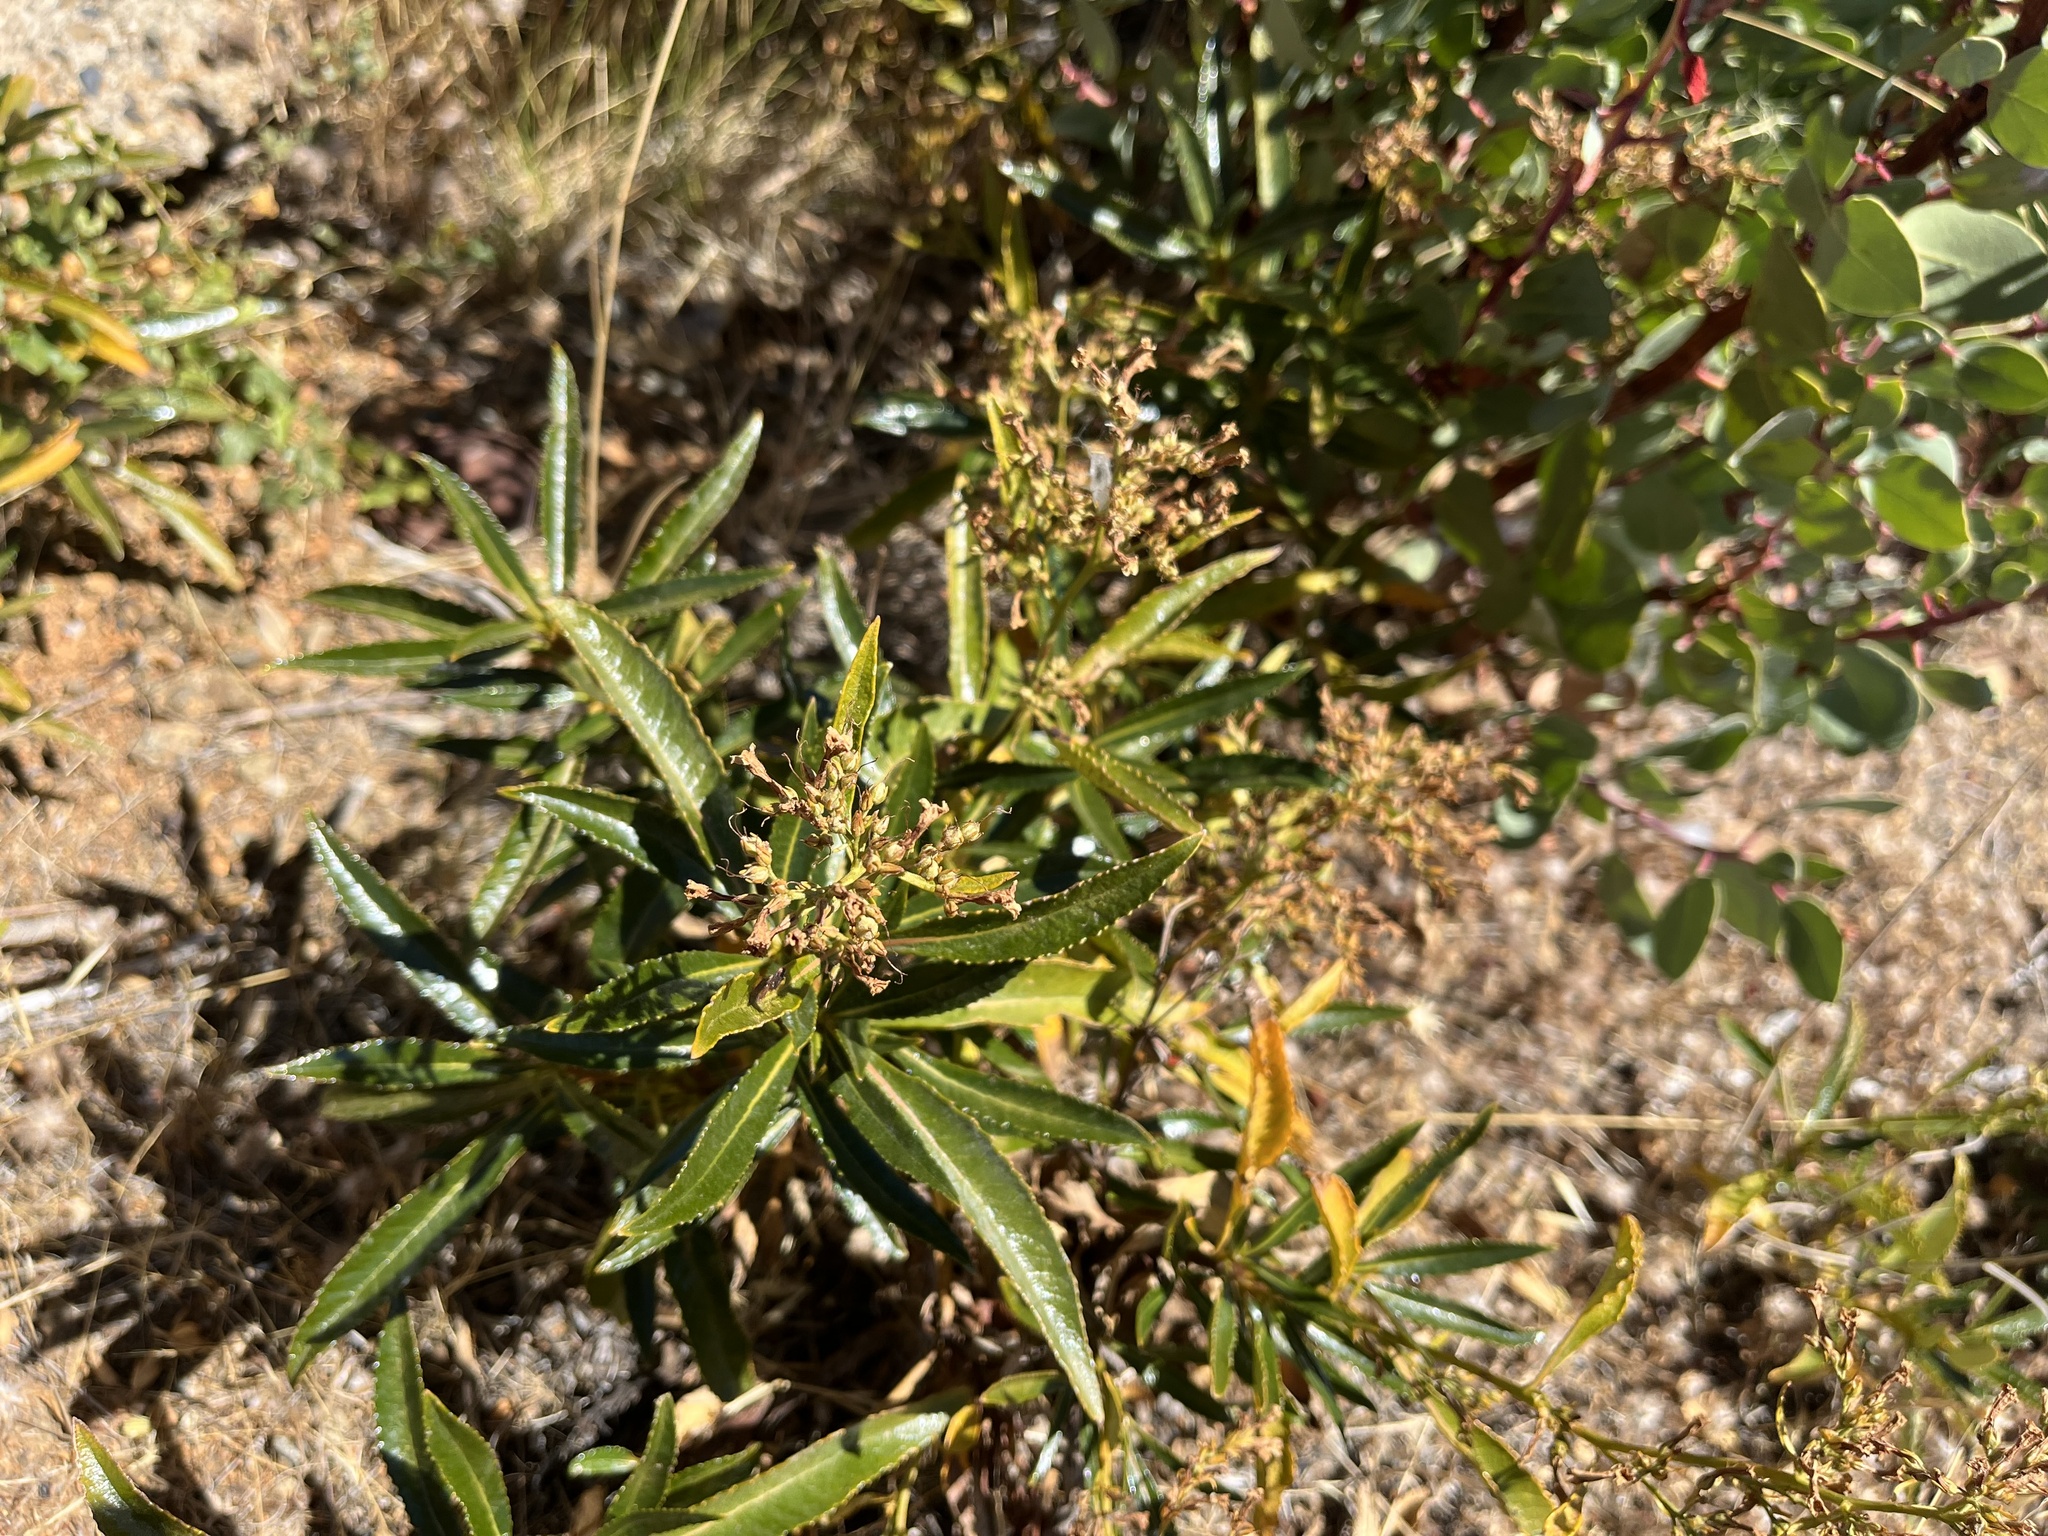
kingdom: Plantae
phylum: Tracheophyta
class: Magnoliopsida
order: Boraginales
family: Namaceae
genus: Eriodictyon
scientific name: Eriodictyon californicum
